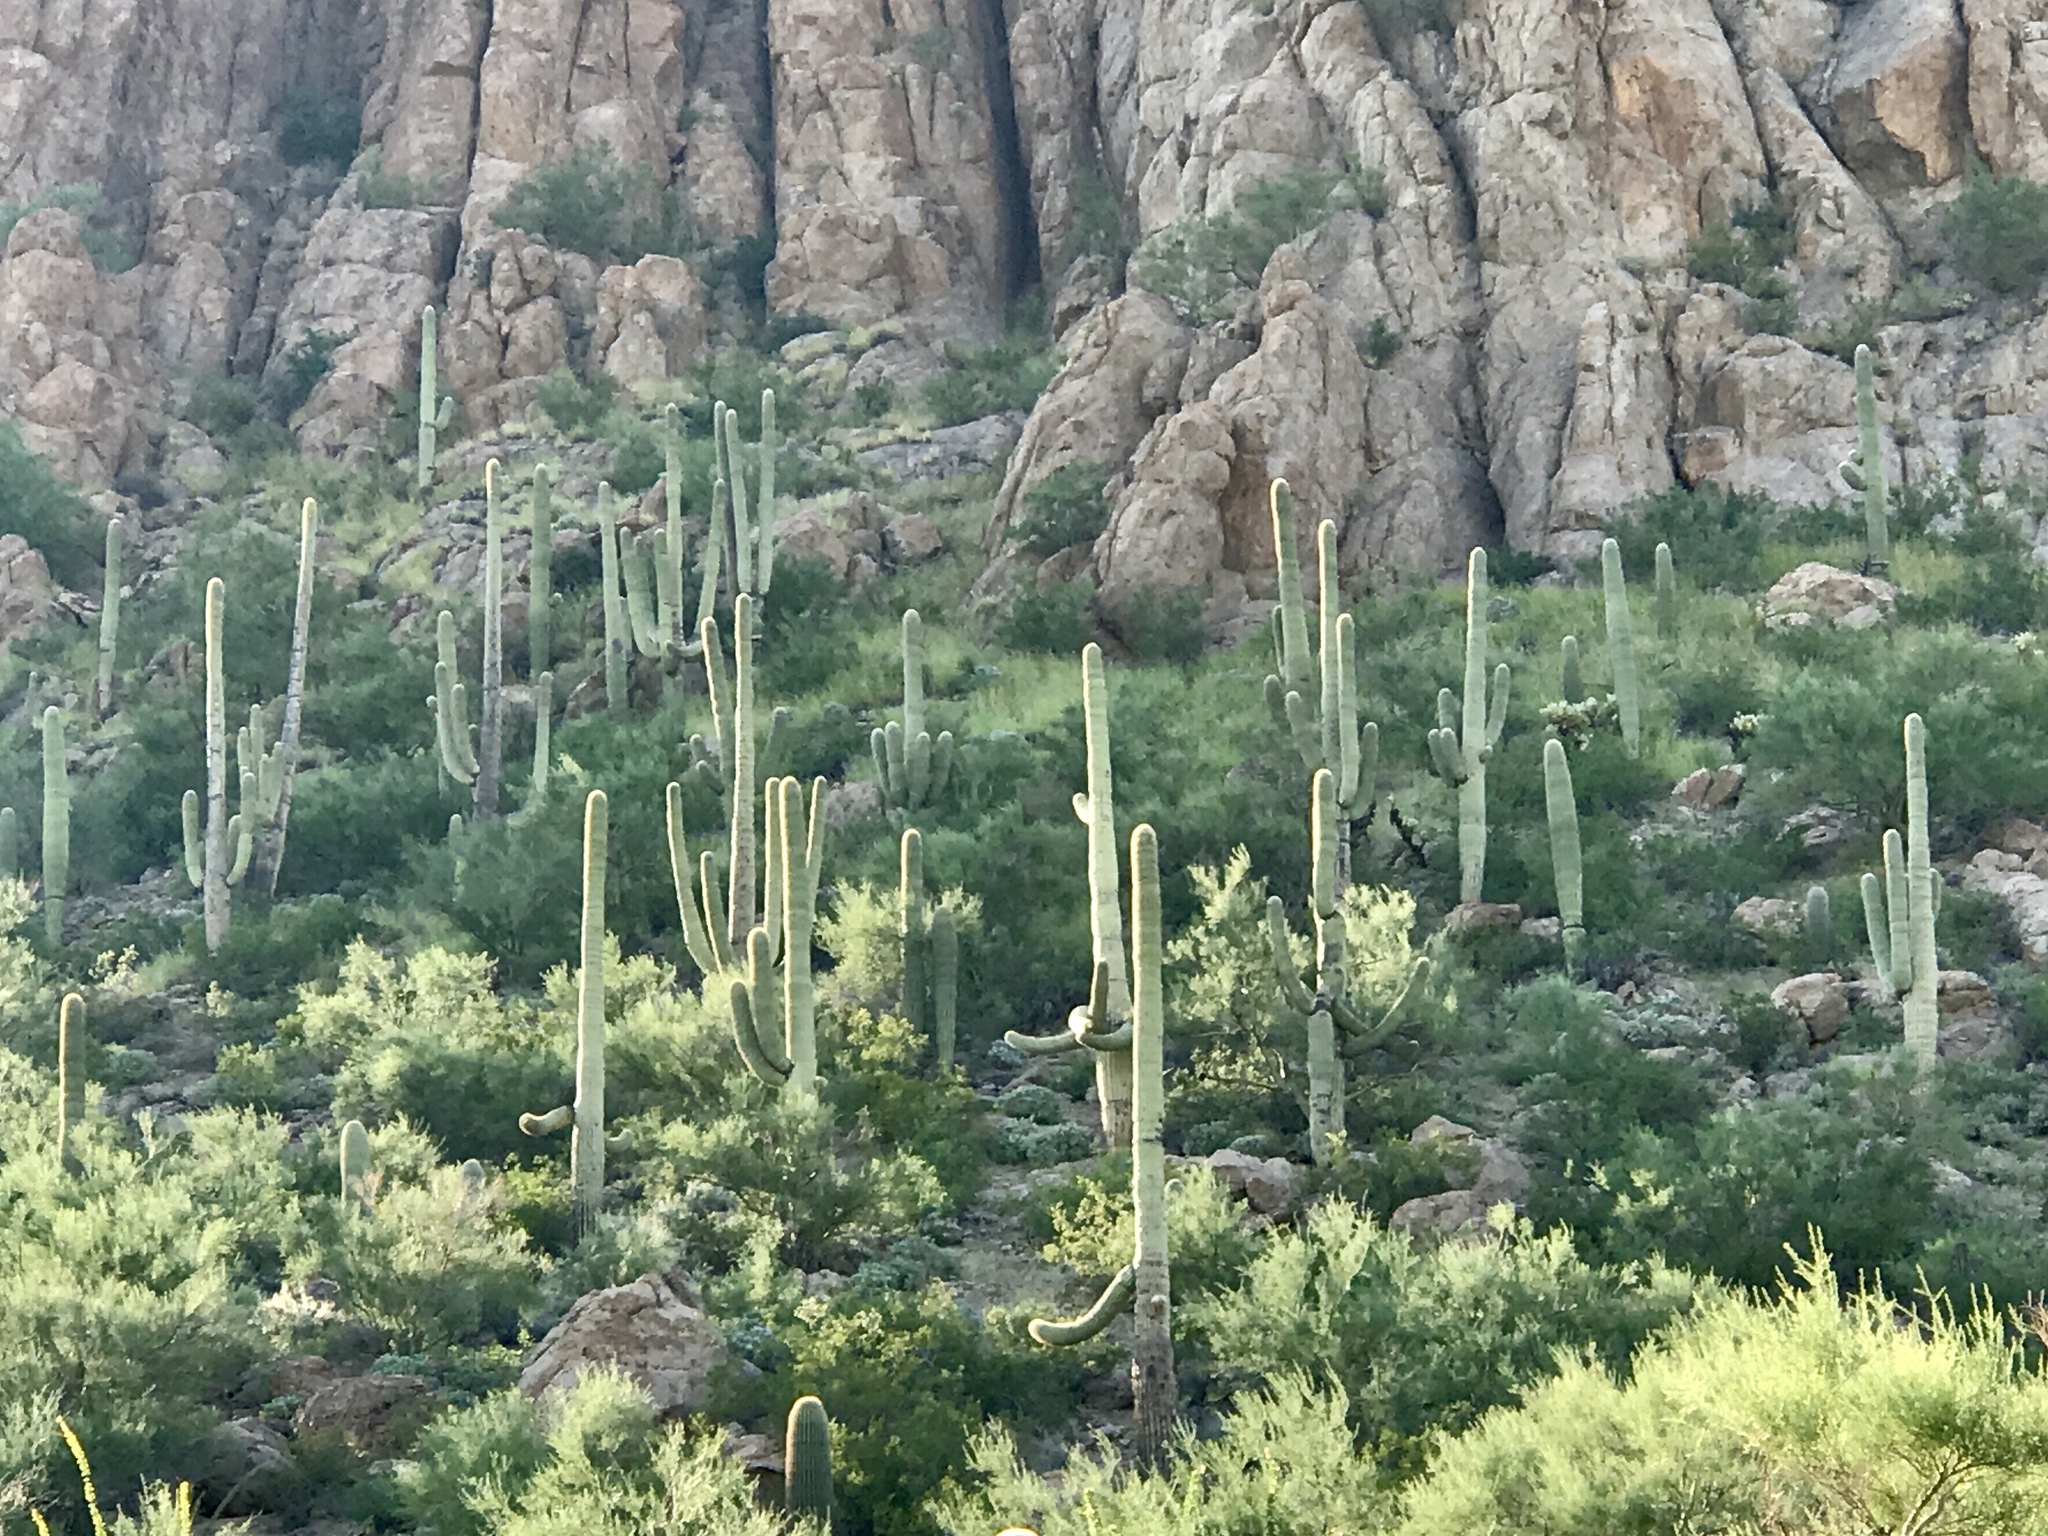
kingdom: Plantae
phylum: Tracheophyta
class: Magnoliopsida
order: Caryophyllales
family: Cactaceae
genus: Carnegiea
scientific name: Carnegiea gigantea
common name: Saguaro
